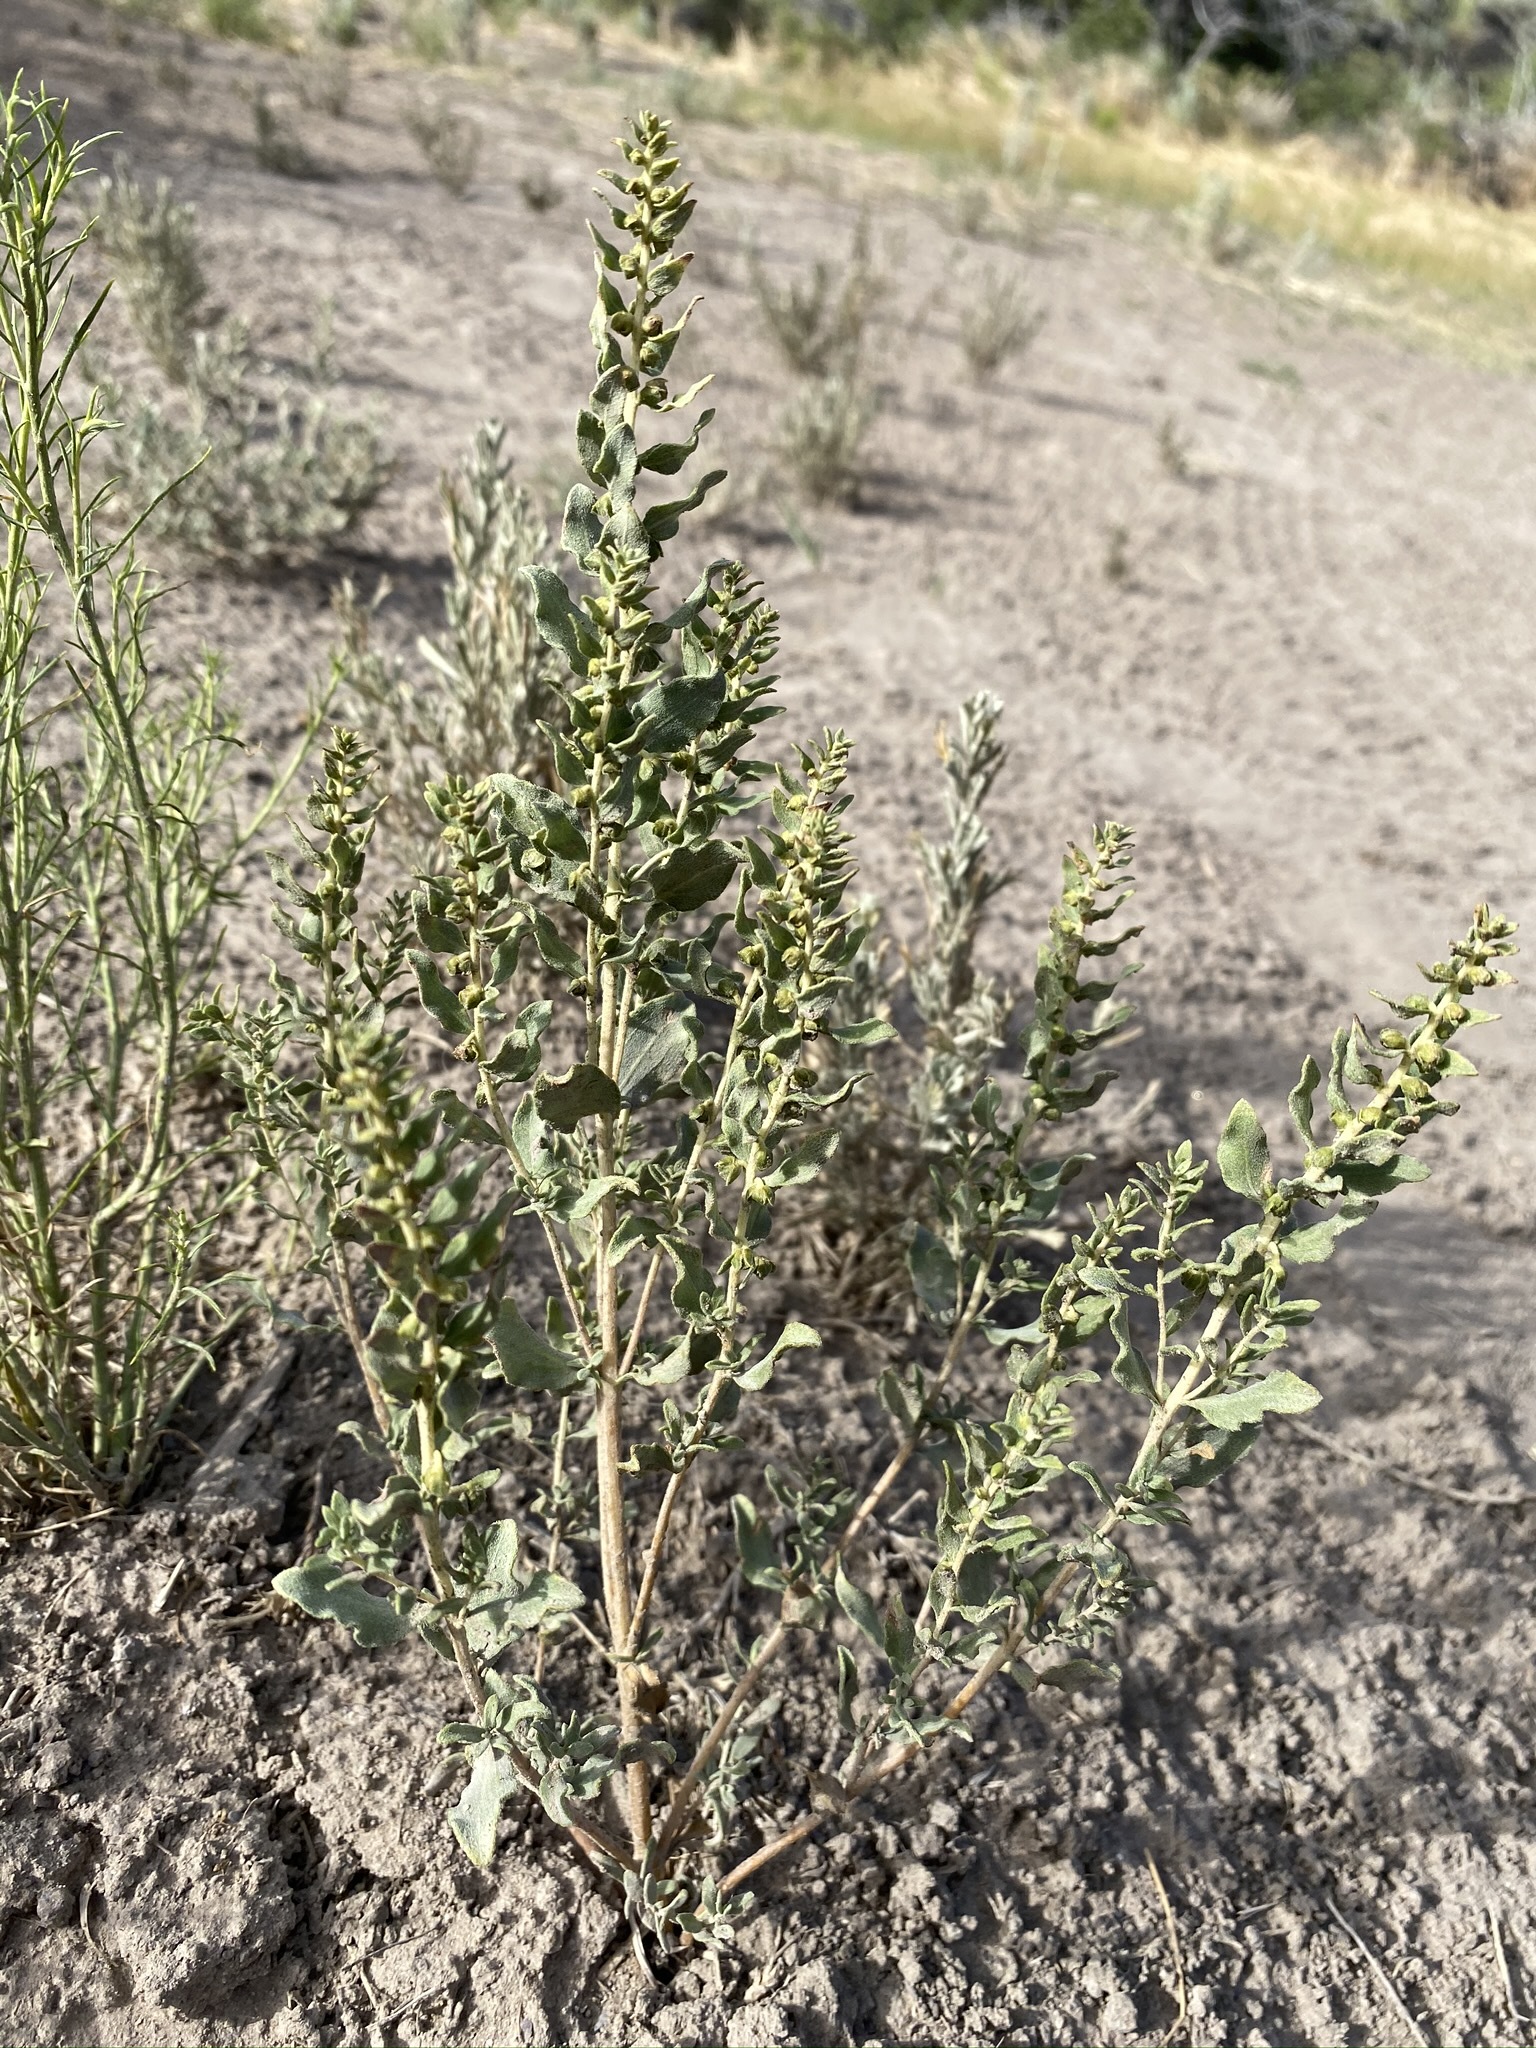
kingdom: Plantae
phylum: Tracheophyta
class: Magnoliopsida
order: Asterales
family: Asteraceae
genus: Iva
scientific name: Iva axillaris
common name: Poverty sumpweed
